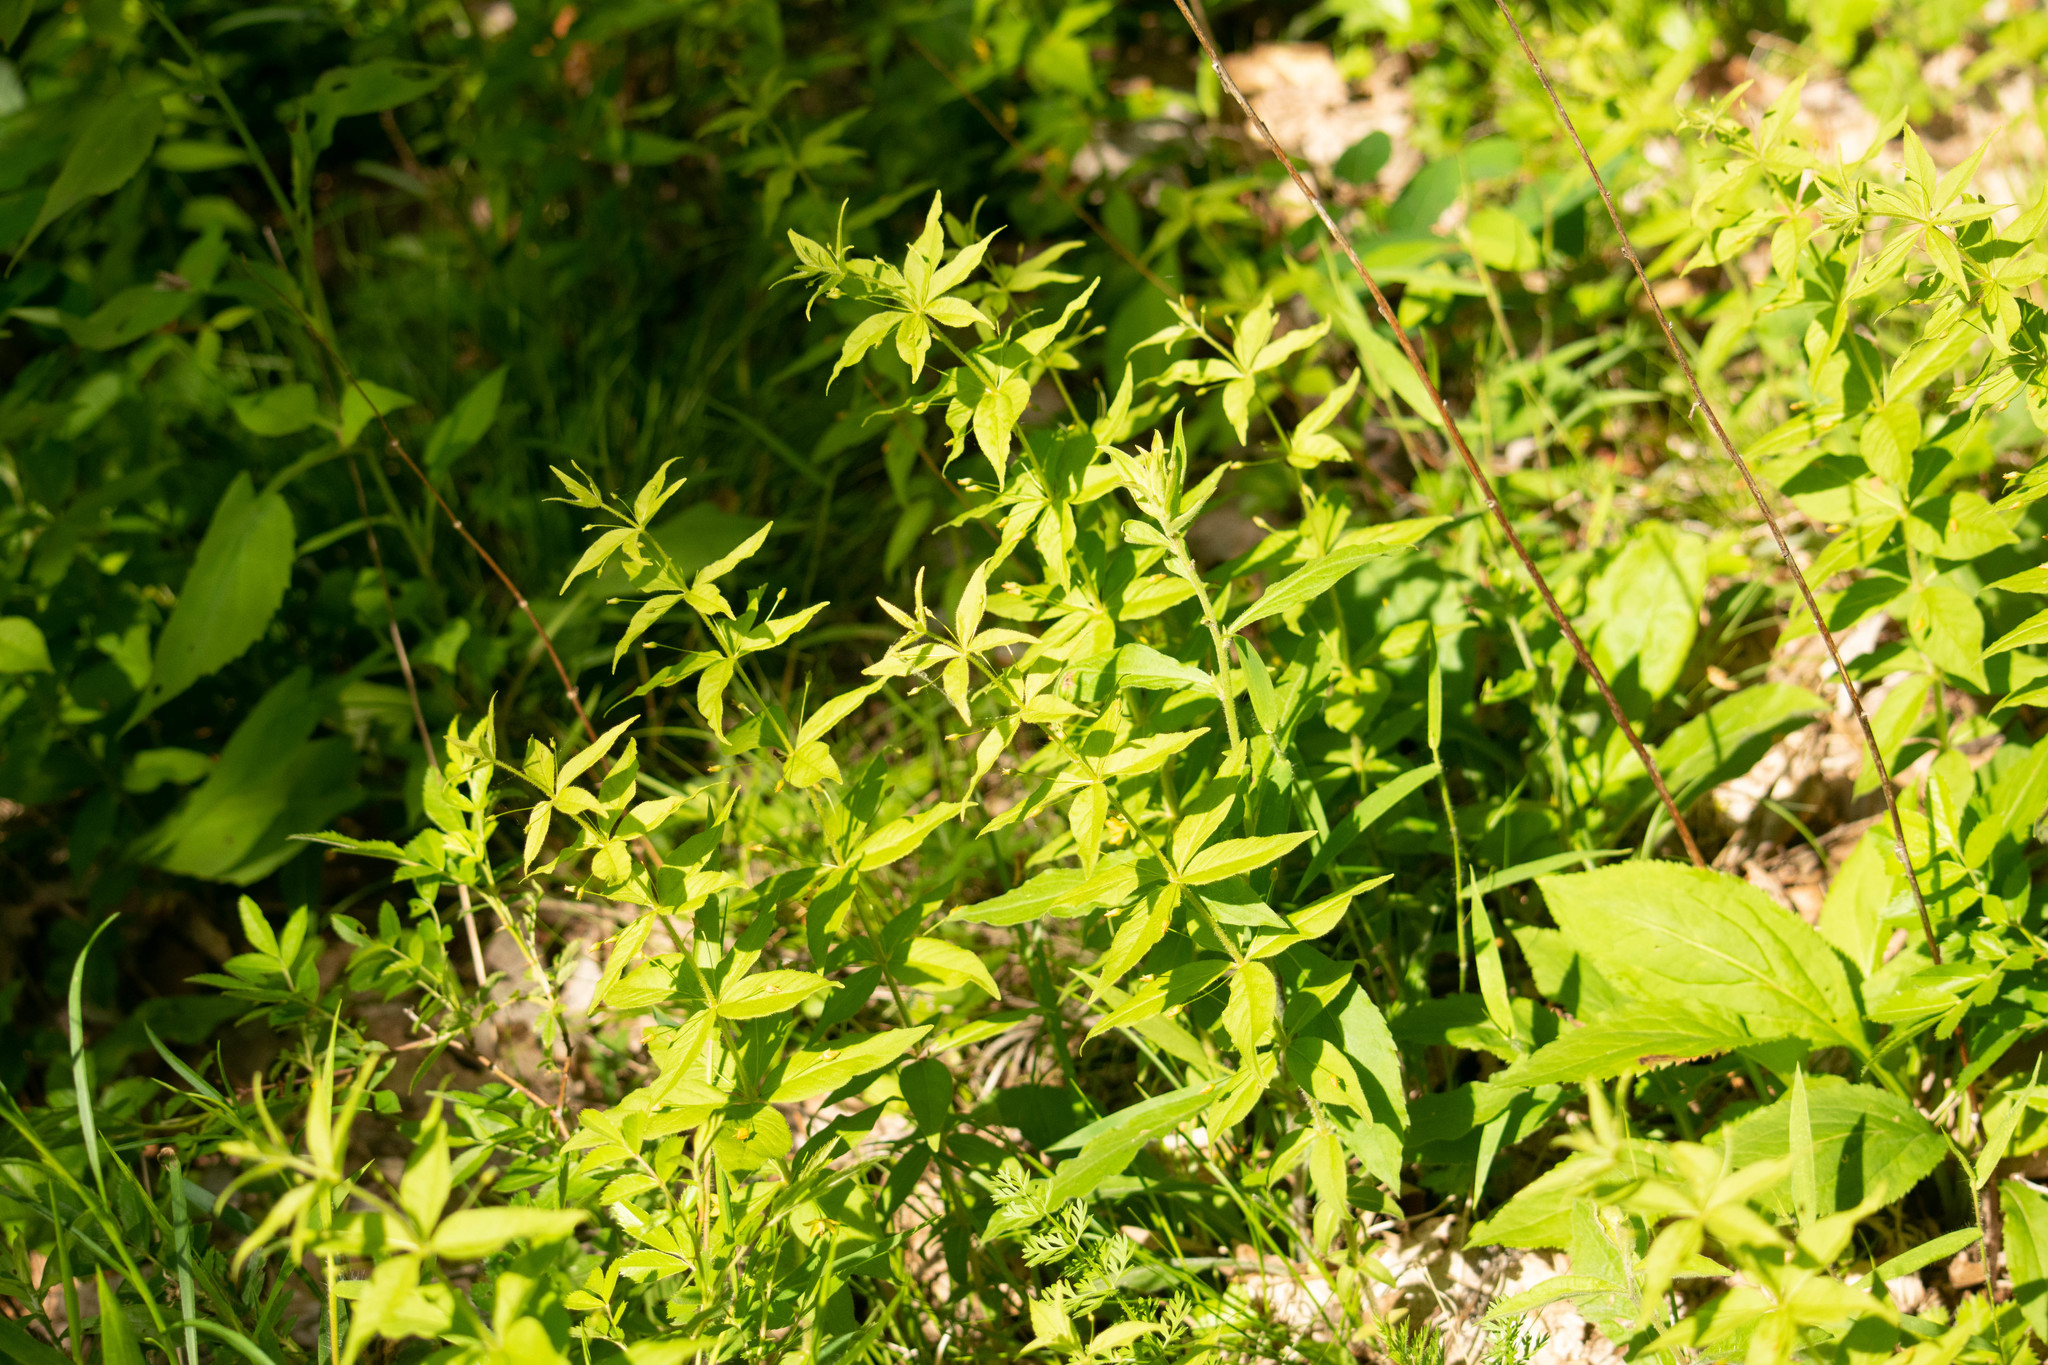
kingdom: Plantae
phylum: Tracheophyta
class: Magnoliopsida
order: Ericales
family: Primulaceae
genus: Lysimachia
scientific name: Lysimachia quadrifolia
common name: Whorled loosestrife
